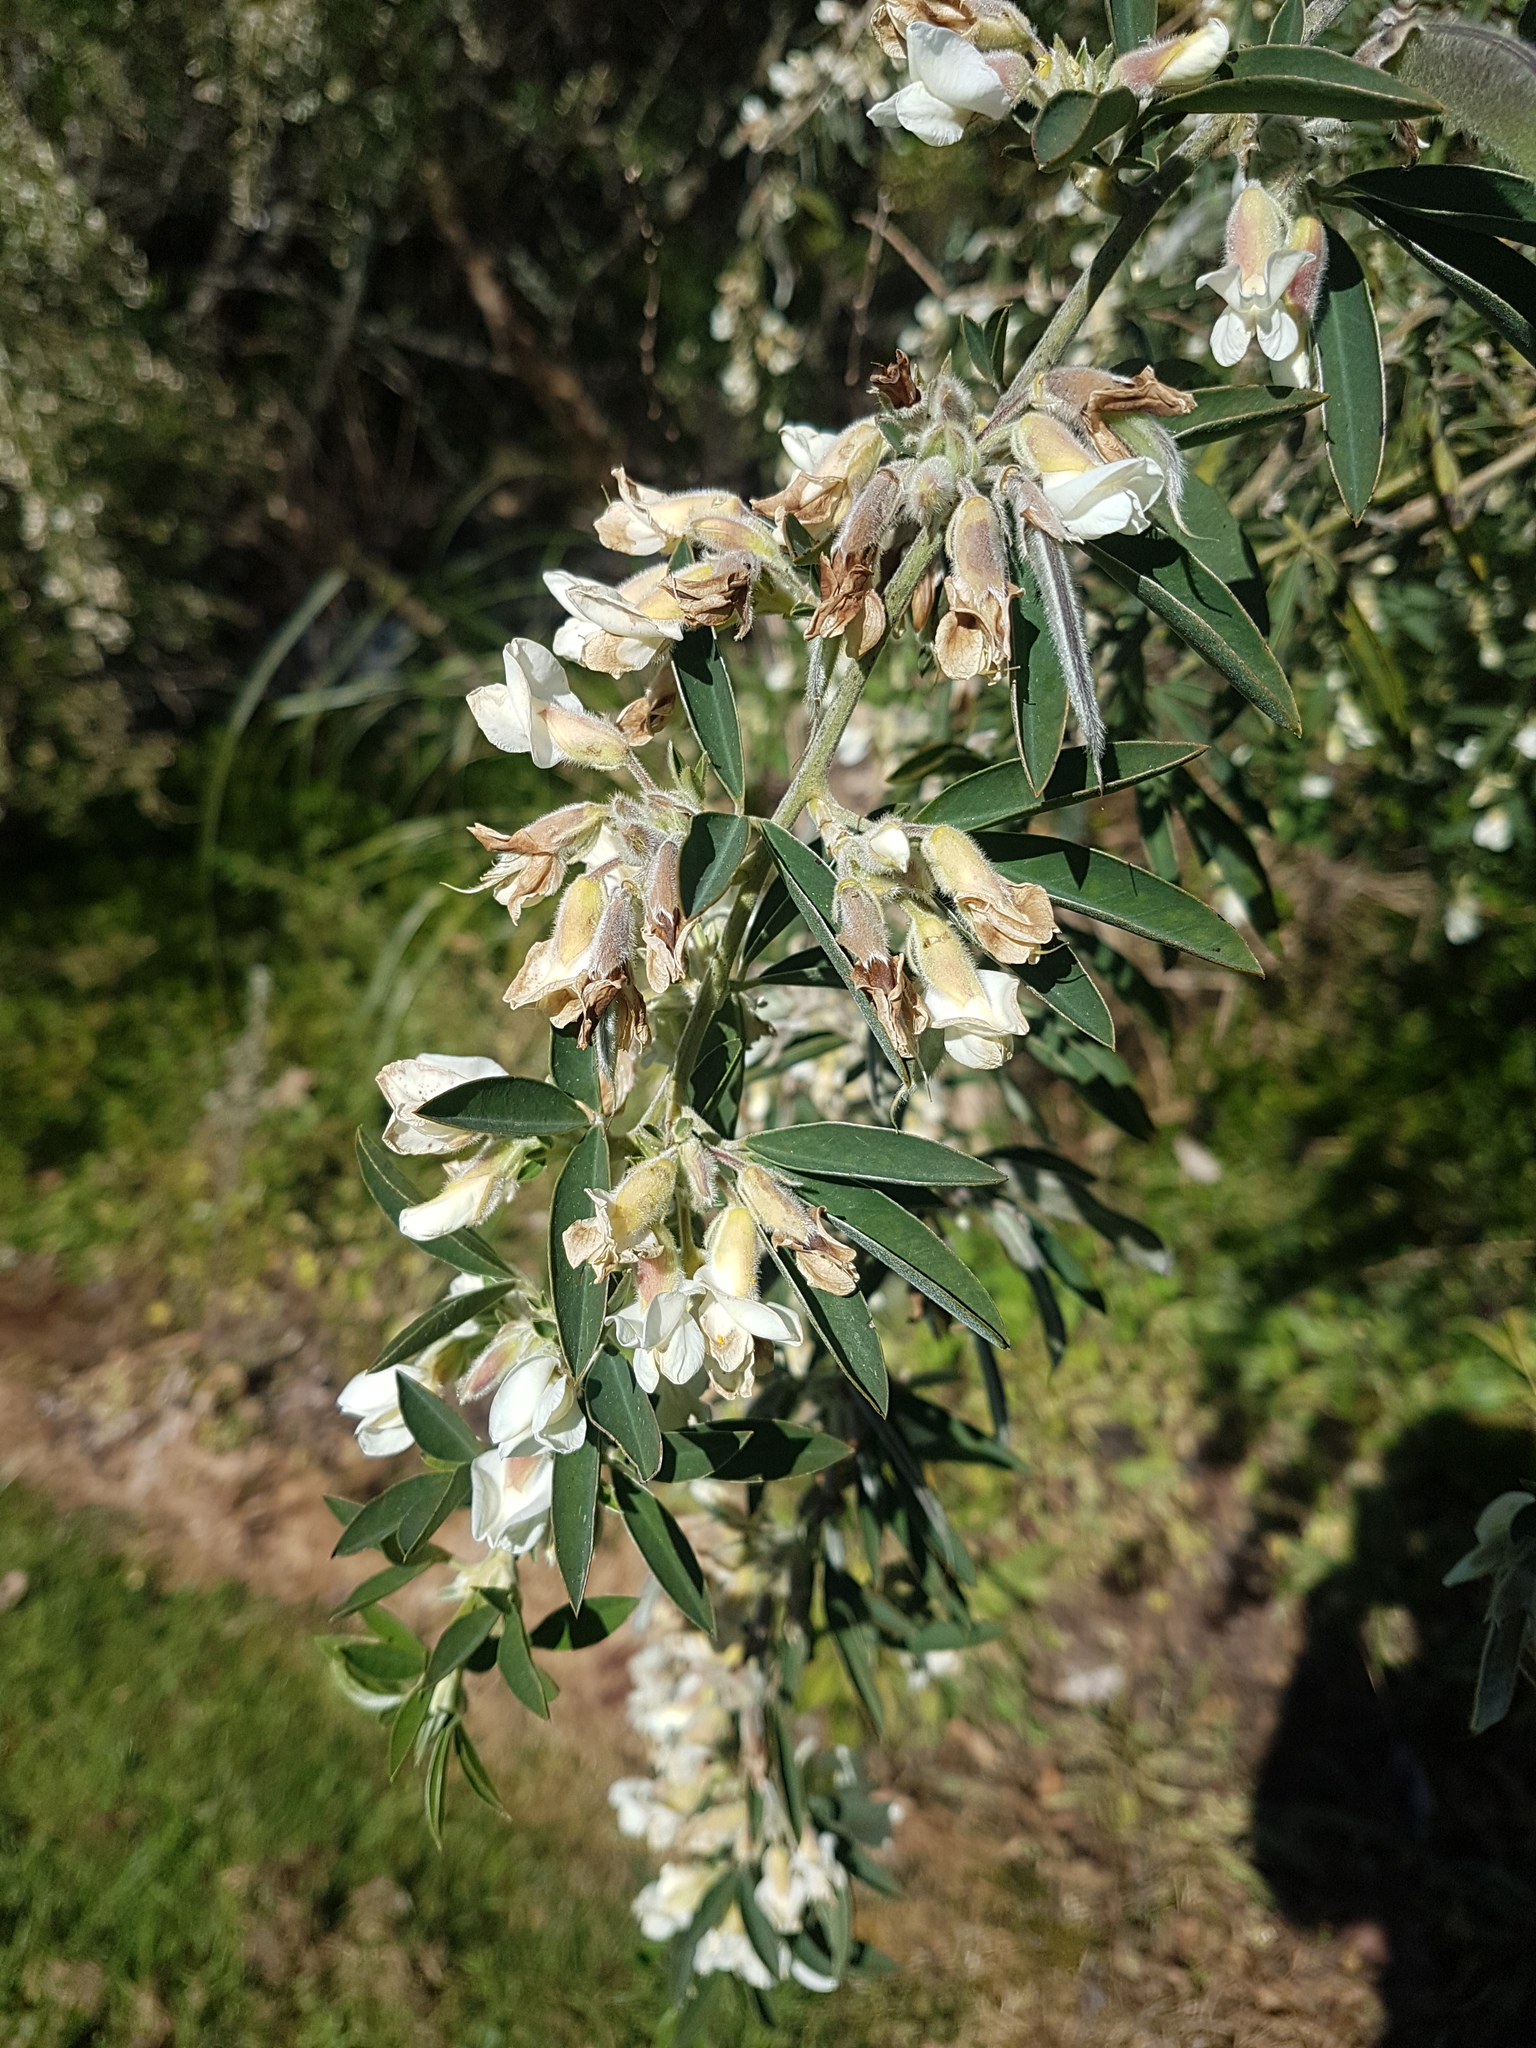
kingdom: Plantae
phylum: Tracheophyta
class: Magnoliopsida
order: Fabales
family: Fabaceae
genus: Chamaecytisus
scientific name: Chamaecytisus prolifer
